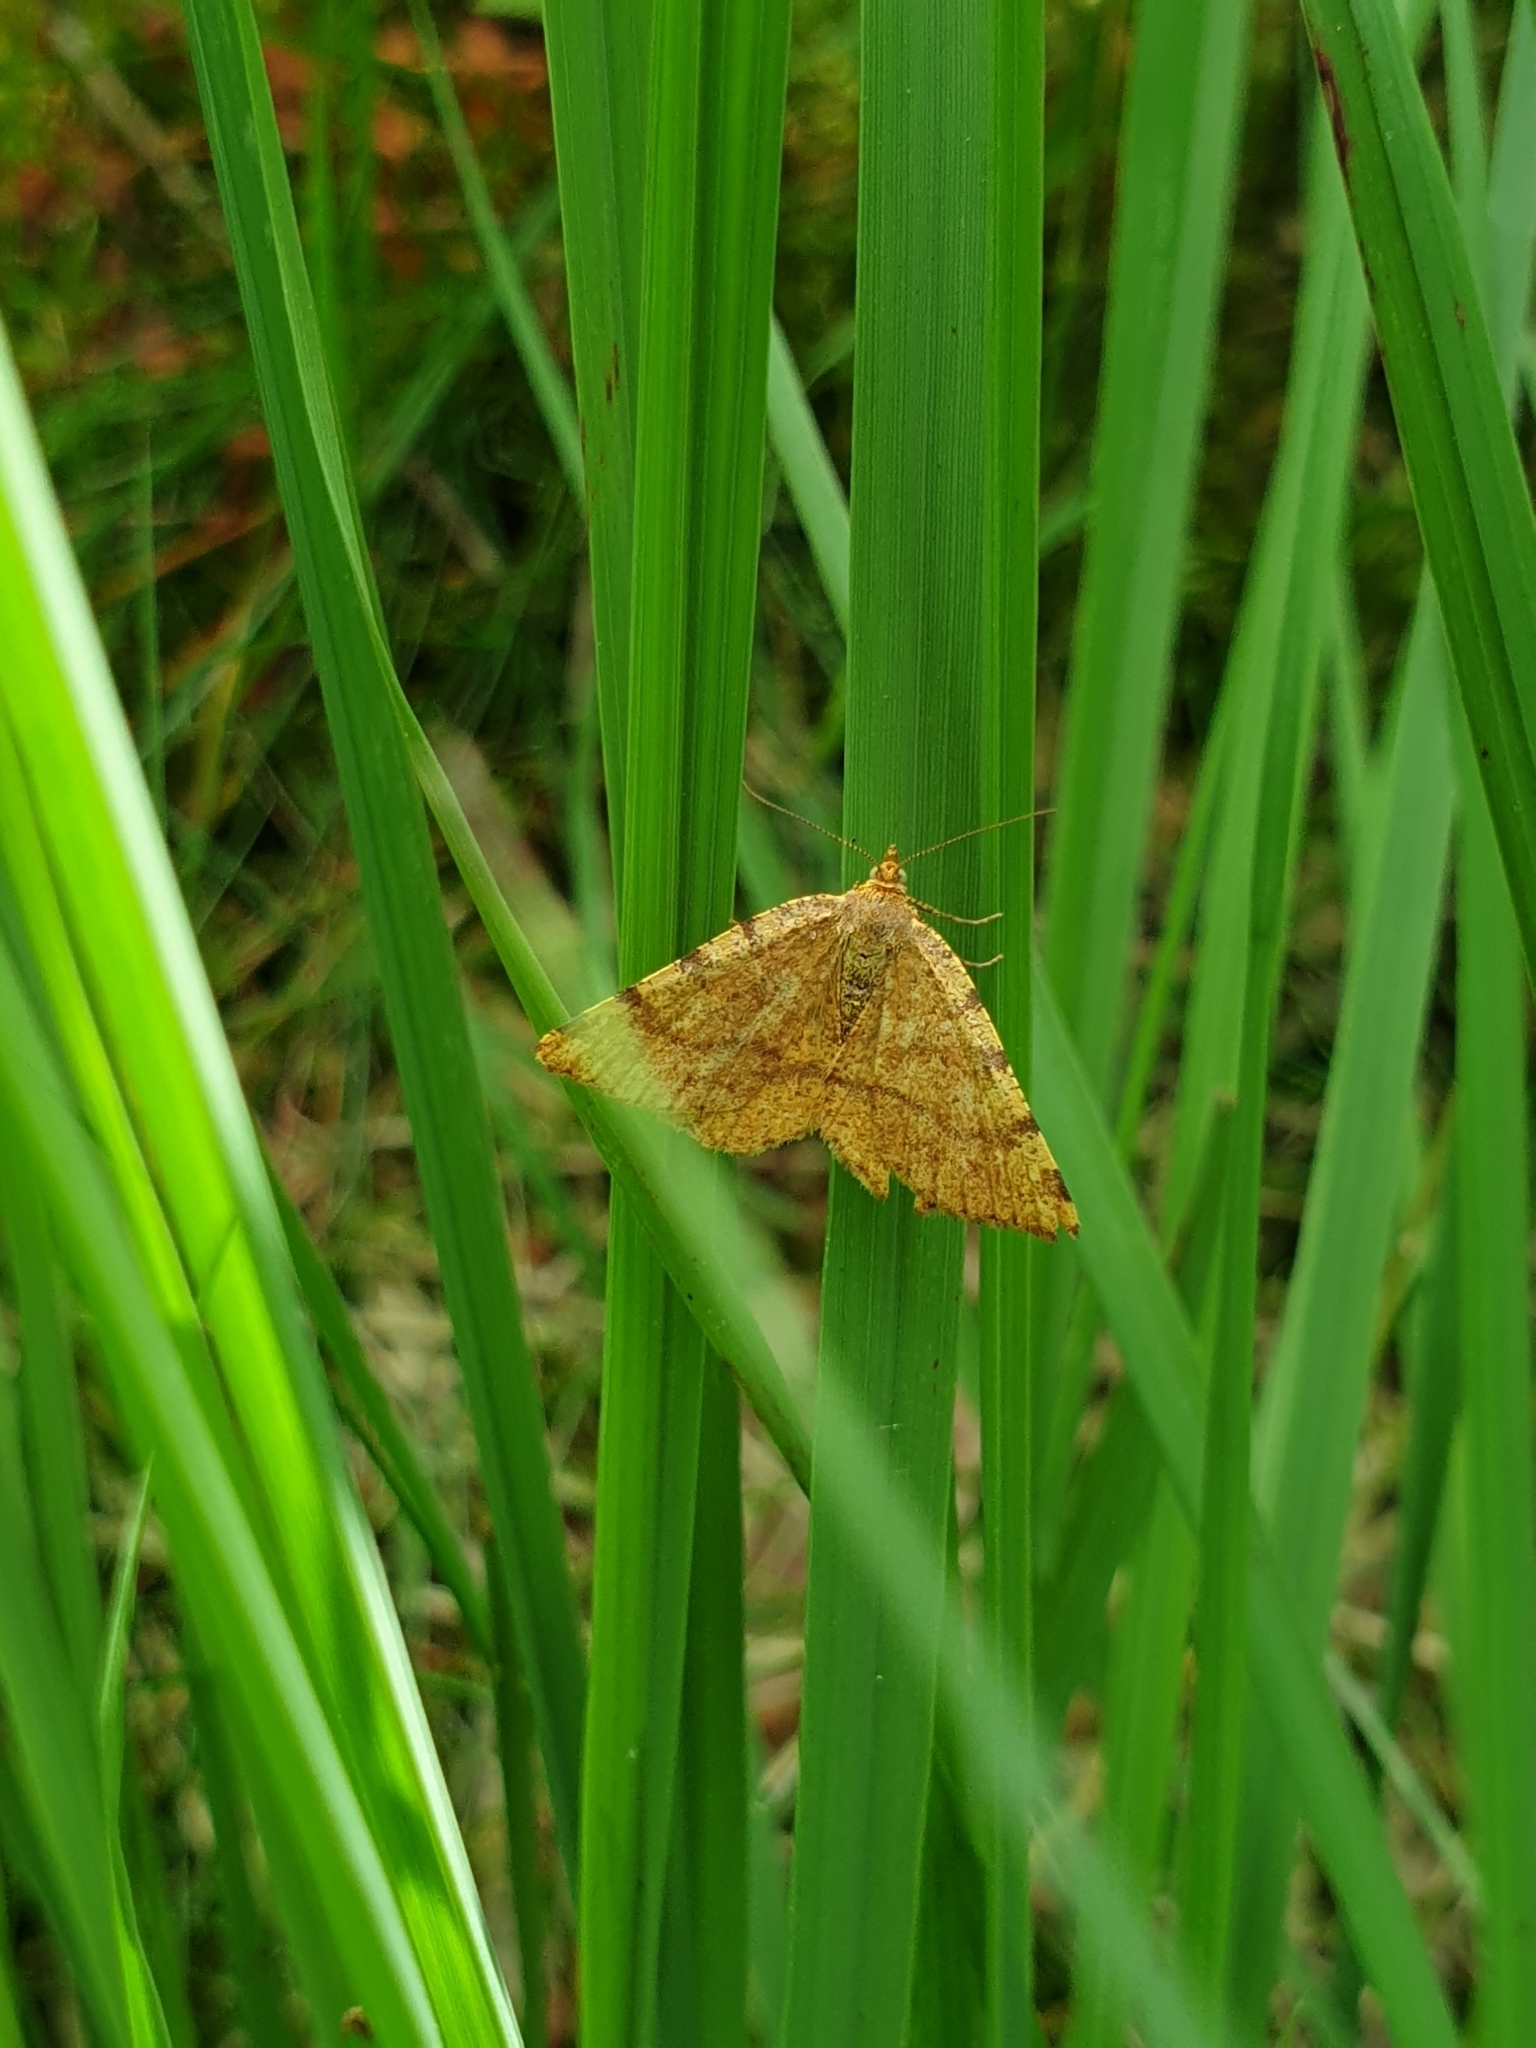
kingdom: Animalia
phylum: Arthropoda
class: Insecta
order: Lepidoptera
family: Geometridae
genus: Macaria
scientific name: Macaria brunneata
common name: Rannoch looper
